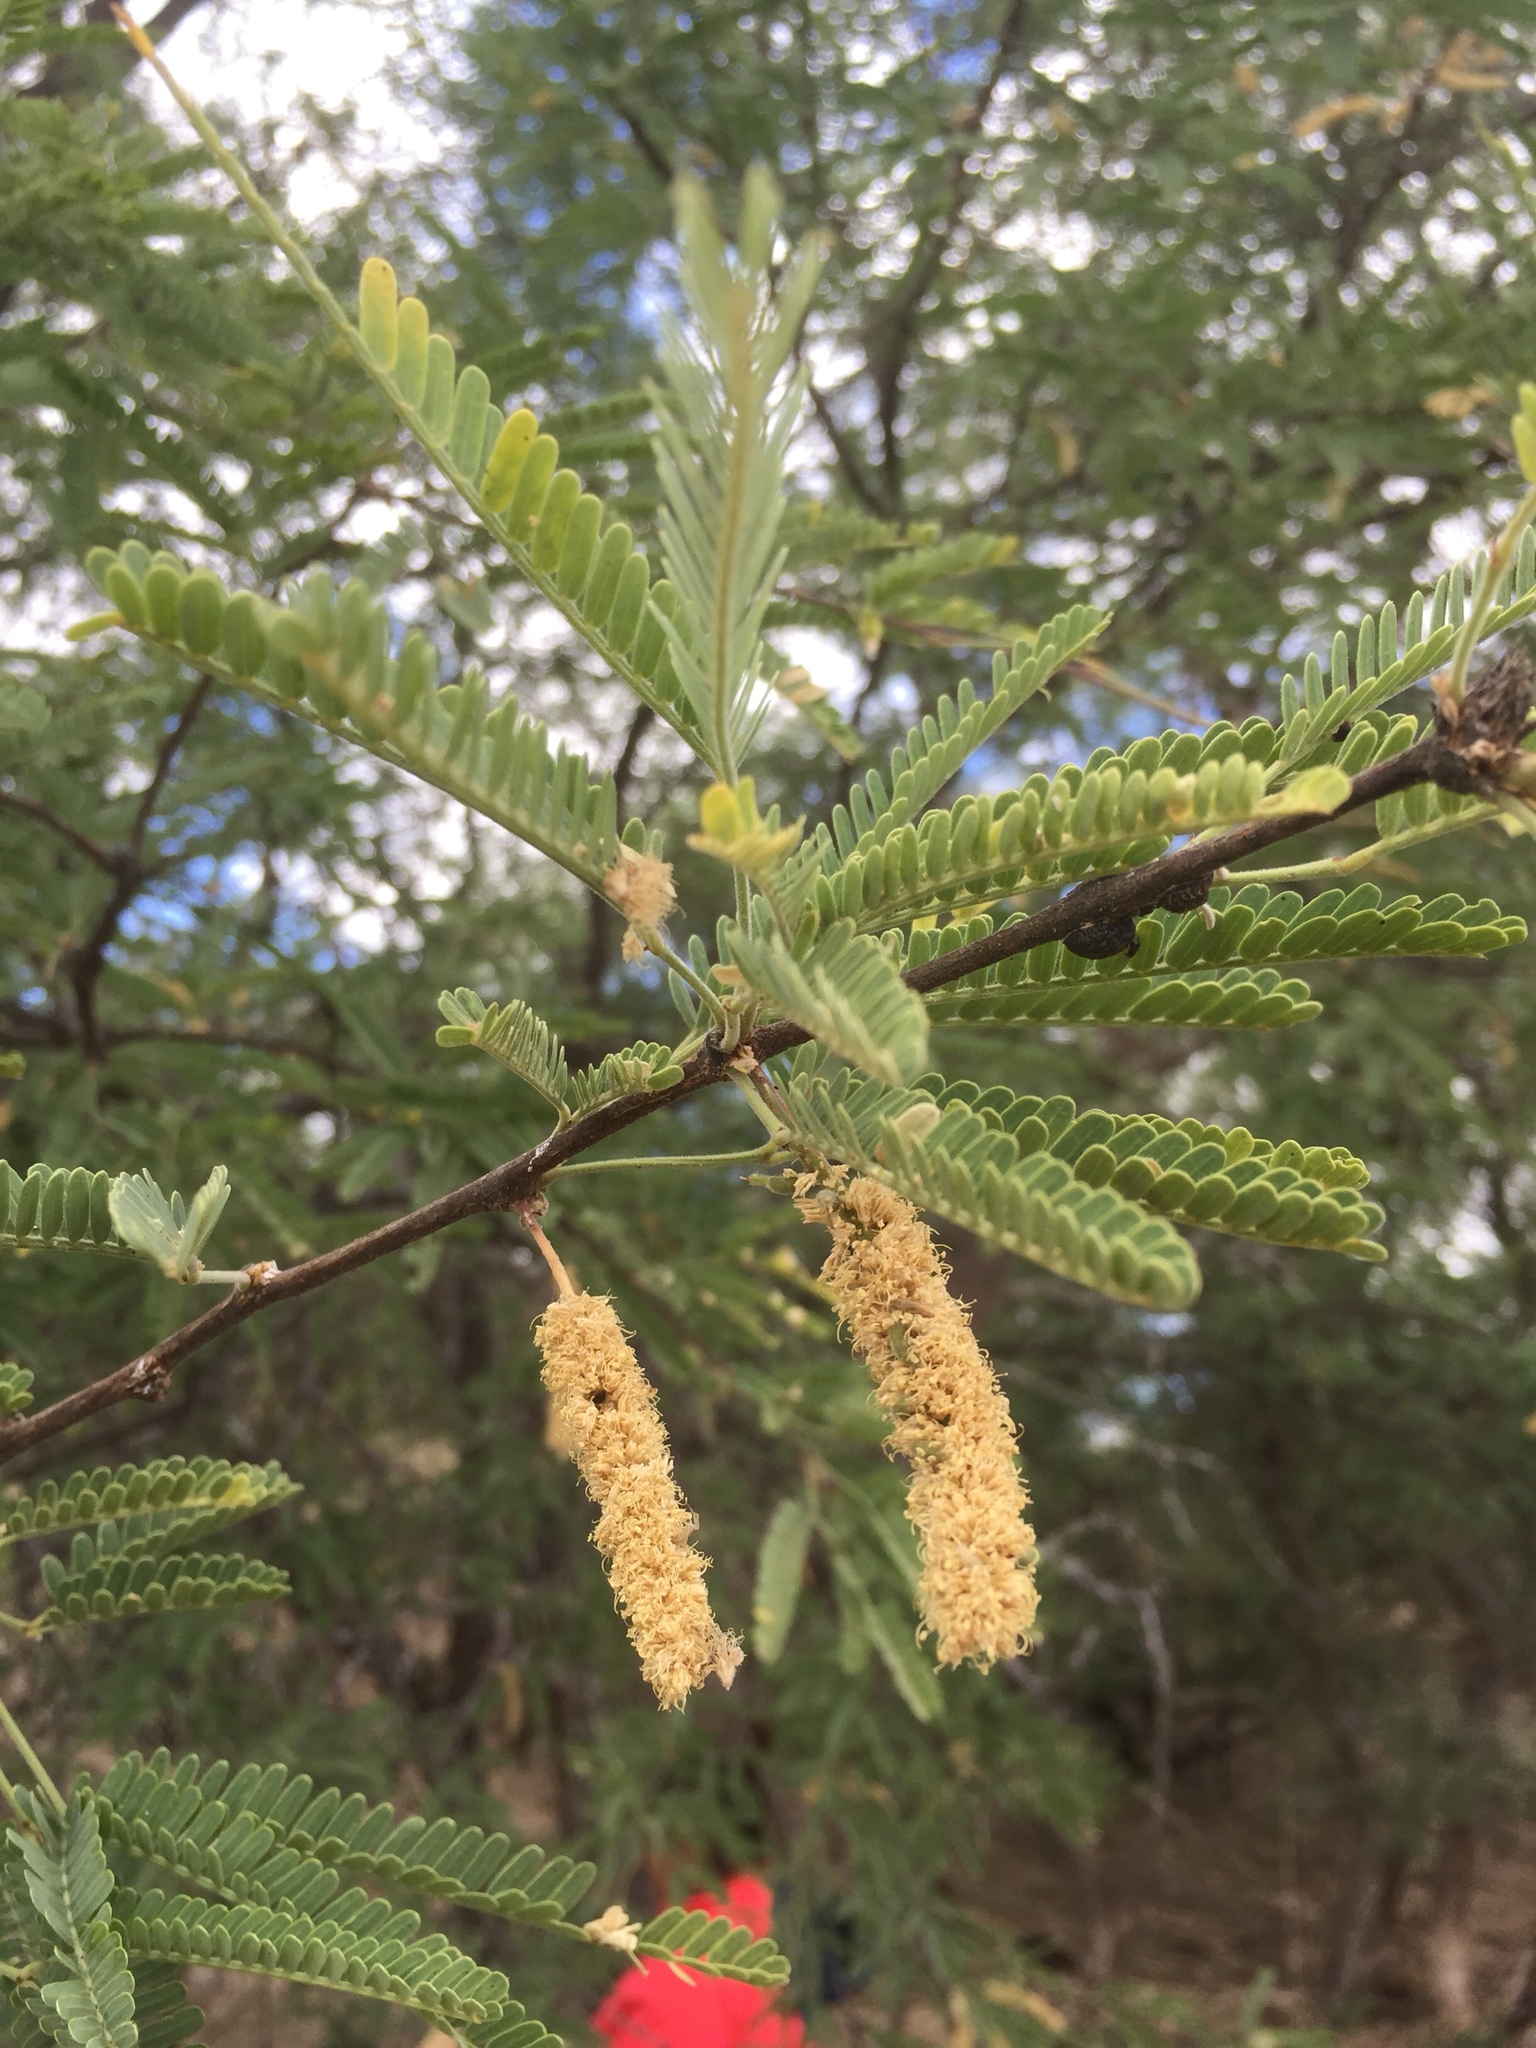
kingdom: Plantae
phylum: Tracheophyta
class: Magnoliopsida
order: Fabales
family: Fabaceae
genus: Prosopis
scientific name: Prosopis velutina
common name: Velvet mesquite
